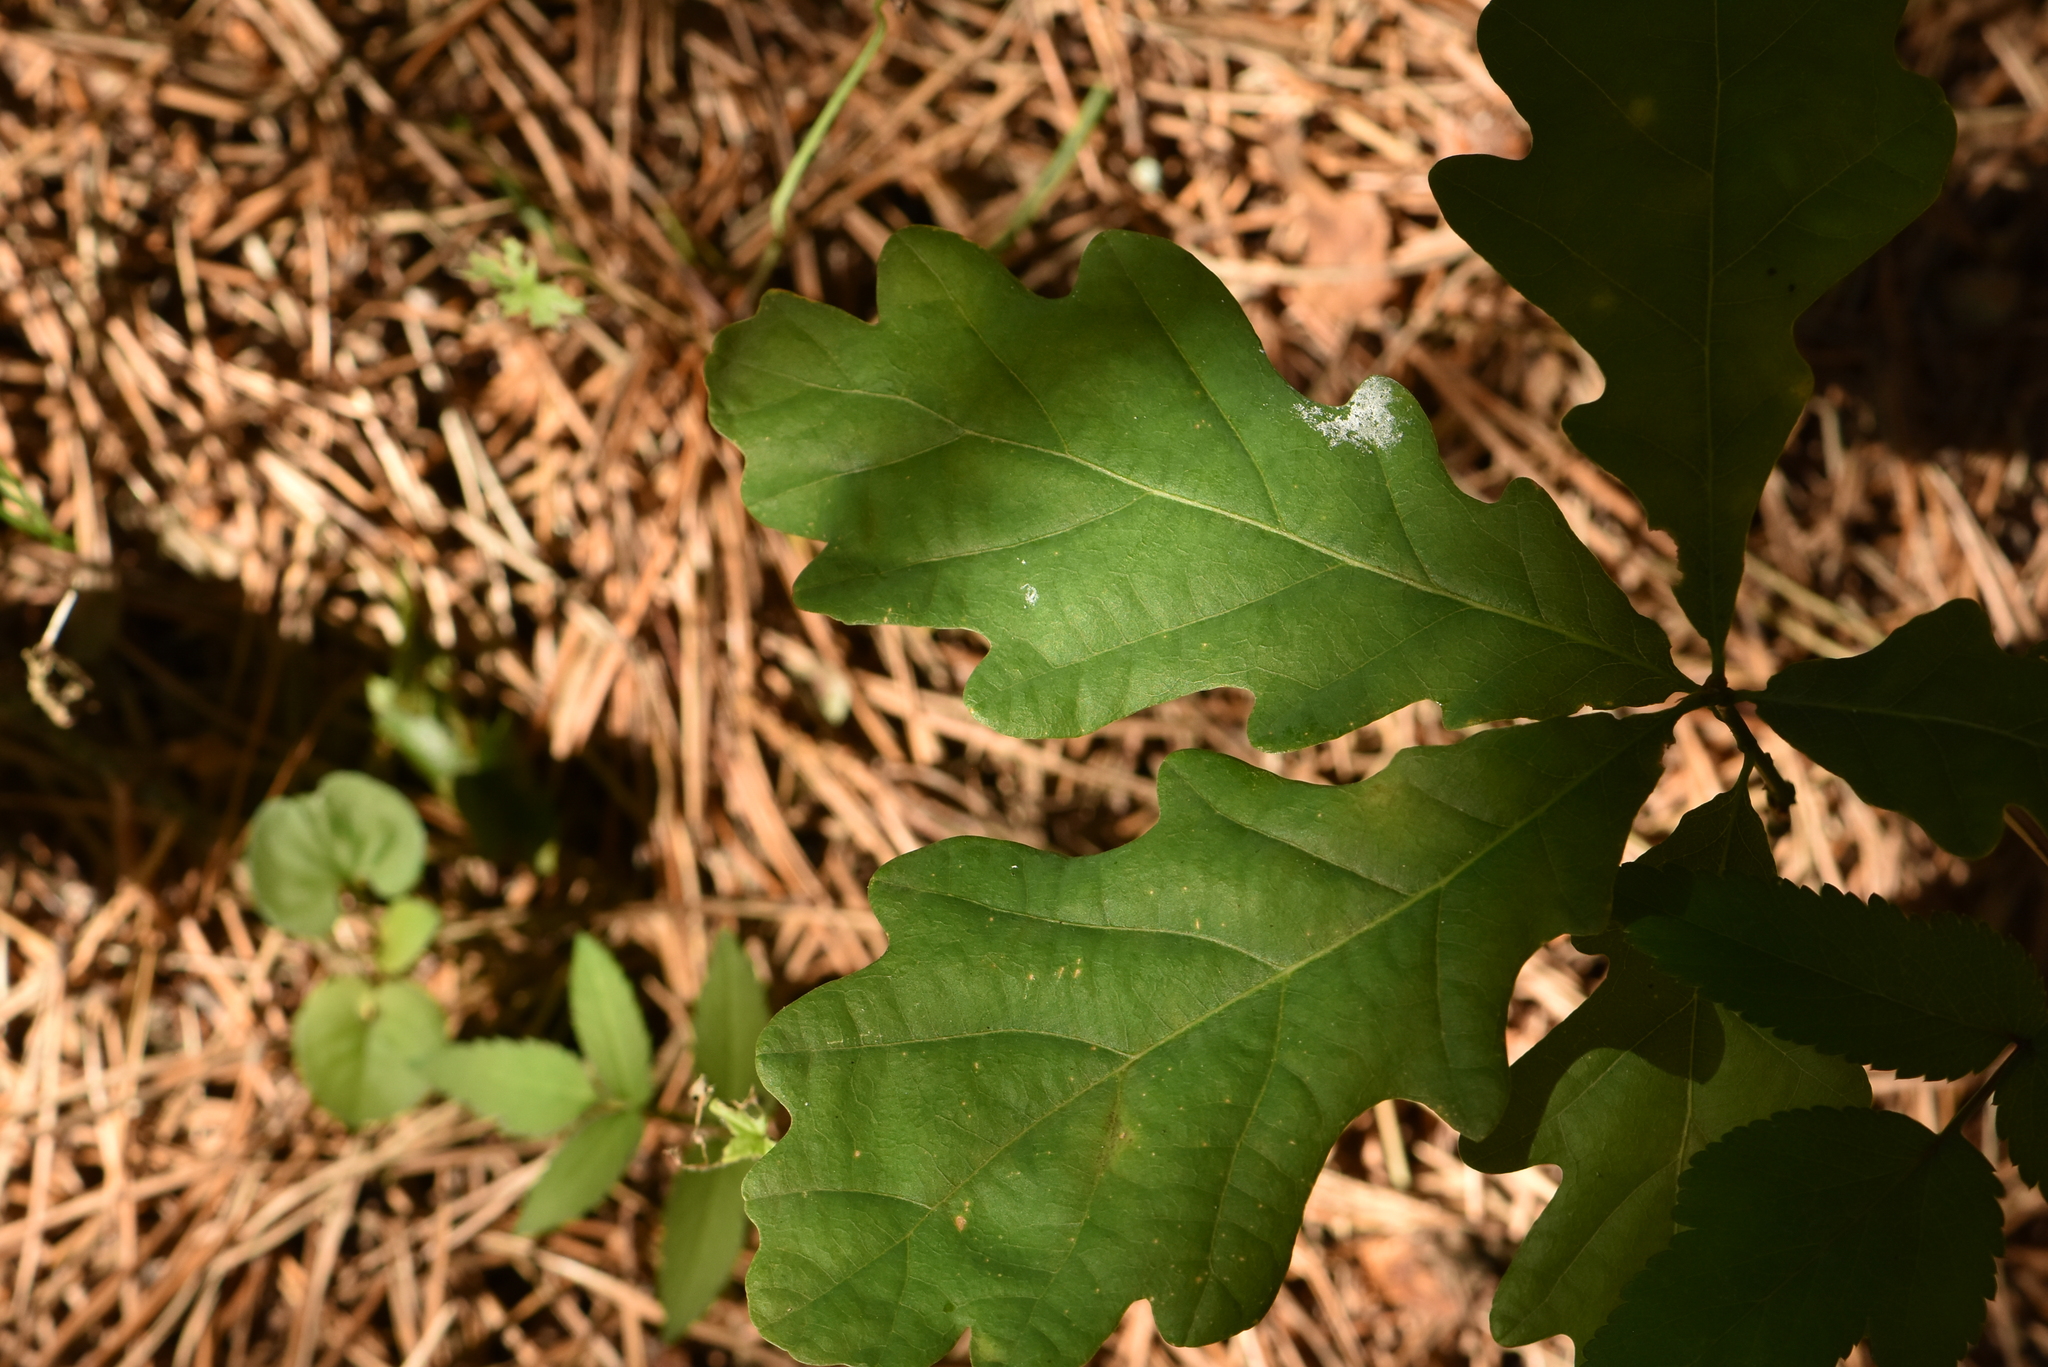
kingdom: Plantae
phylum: Tracheophyta
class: Magnoliopsida
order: Fagales
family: Fagaceae
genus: Quercus
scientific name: Quercus robur
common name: Pedunculate oak
